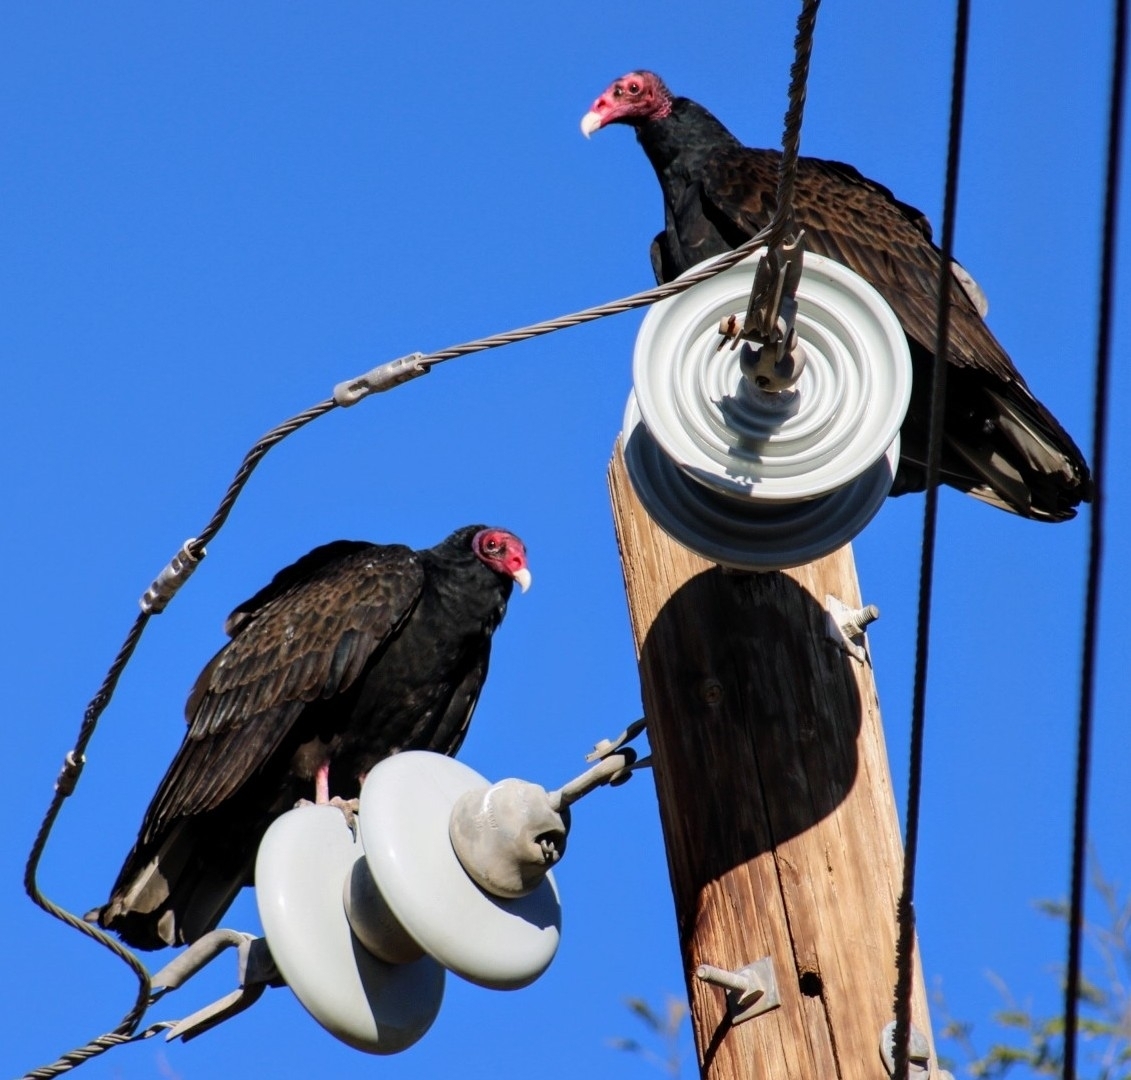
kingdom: Animalia
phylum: Chordata
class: Aves
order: Accipitriformes
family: Cathartidae
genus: Cathartes
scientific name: Cathartes aura
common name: Turkey vulture
